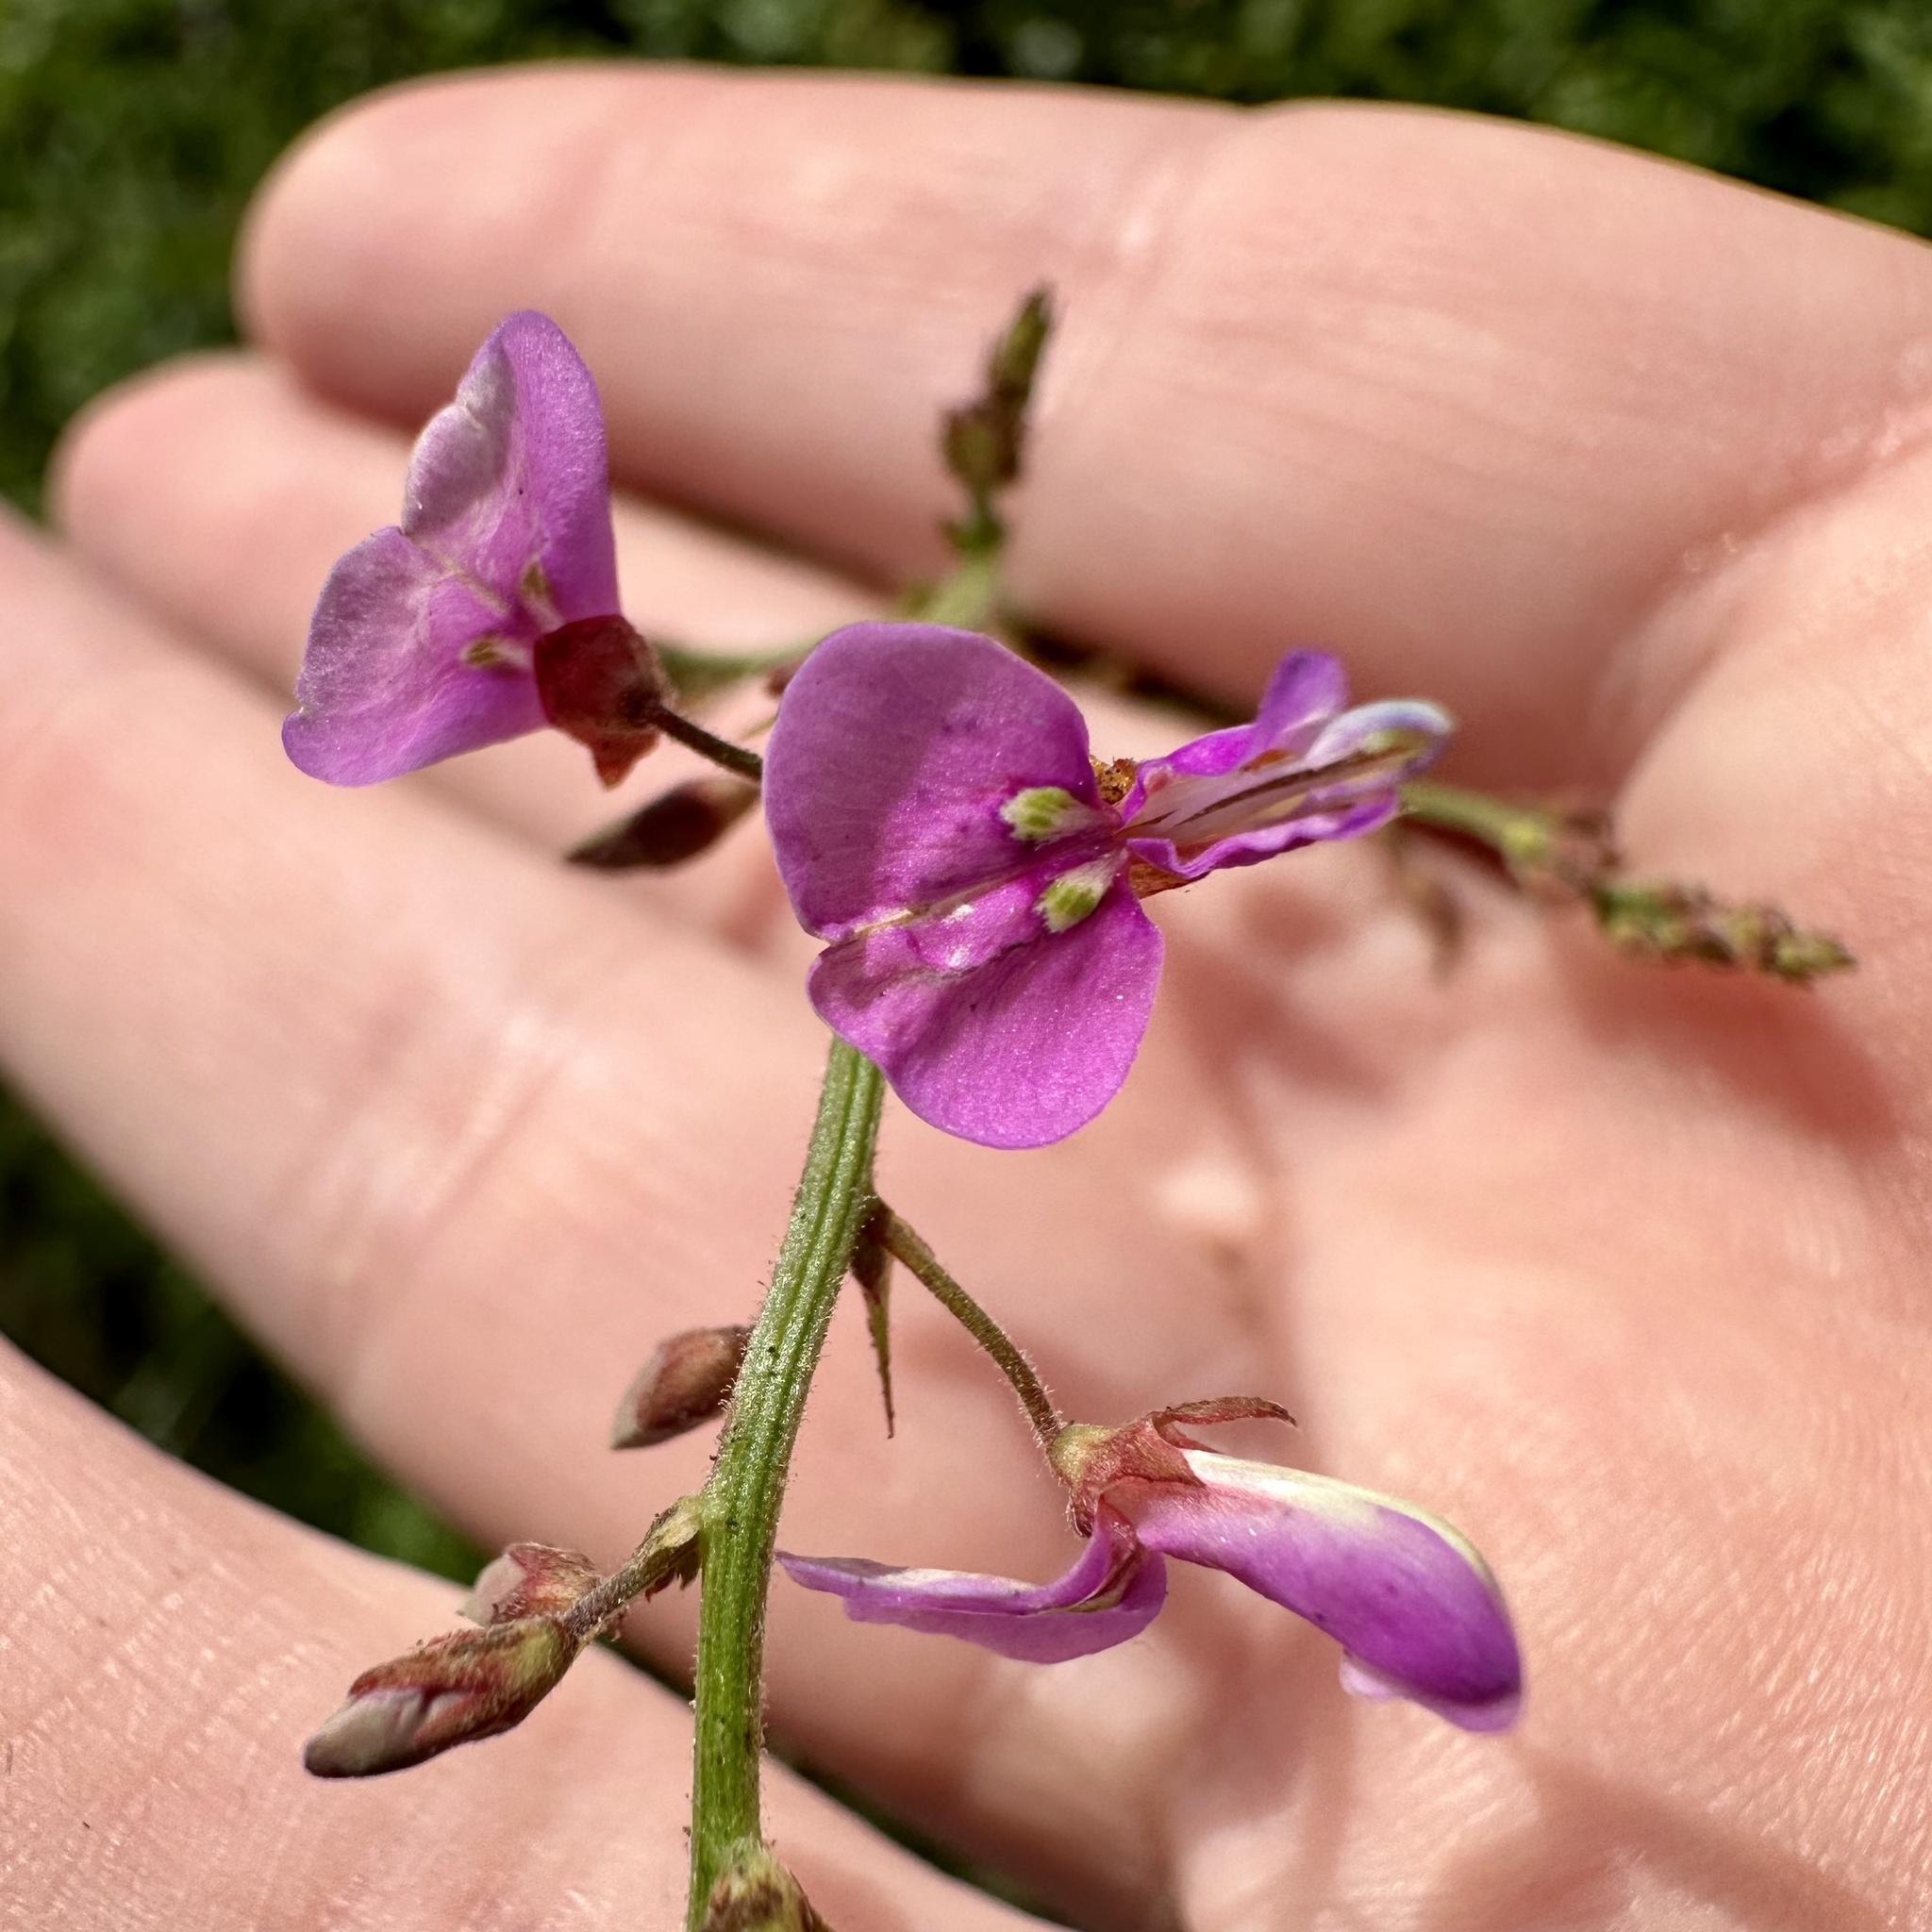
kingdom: Plantae
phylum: Tracheophyta
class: Magnoliopsida
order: Fabales
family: Fabaceae
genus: Desmodium
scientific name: Desmodium paniculatum
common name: Panicled tick-clover
